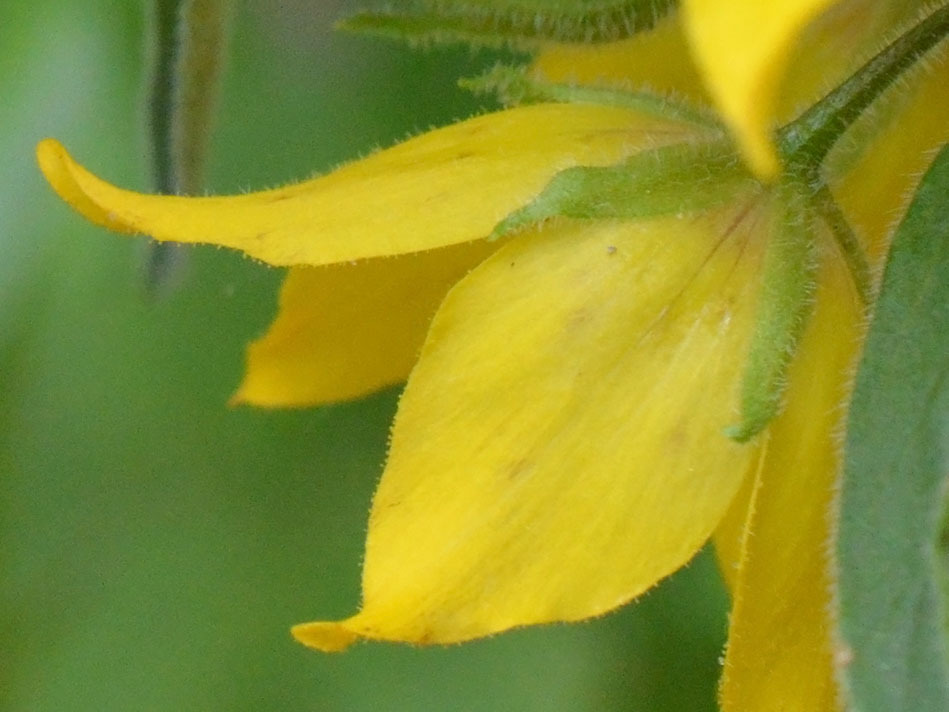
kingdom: Plantae
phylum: Tracheophyta
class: Magnoliopsida
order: Ericales
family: Primulaceae
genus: Lysimachia
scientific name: Lysimachia punctata
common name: Dotted loosestrife
